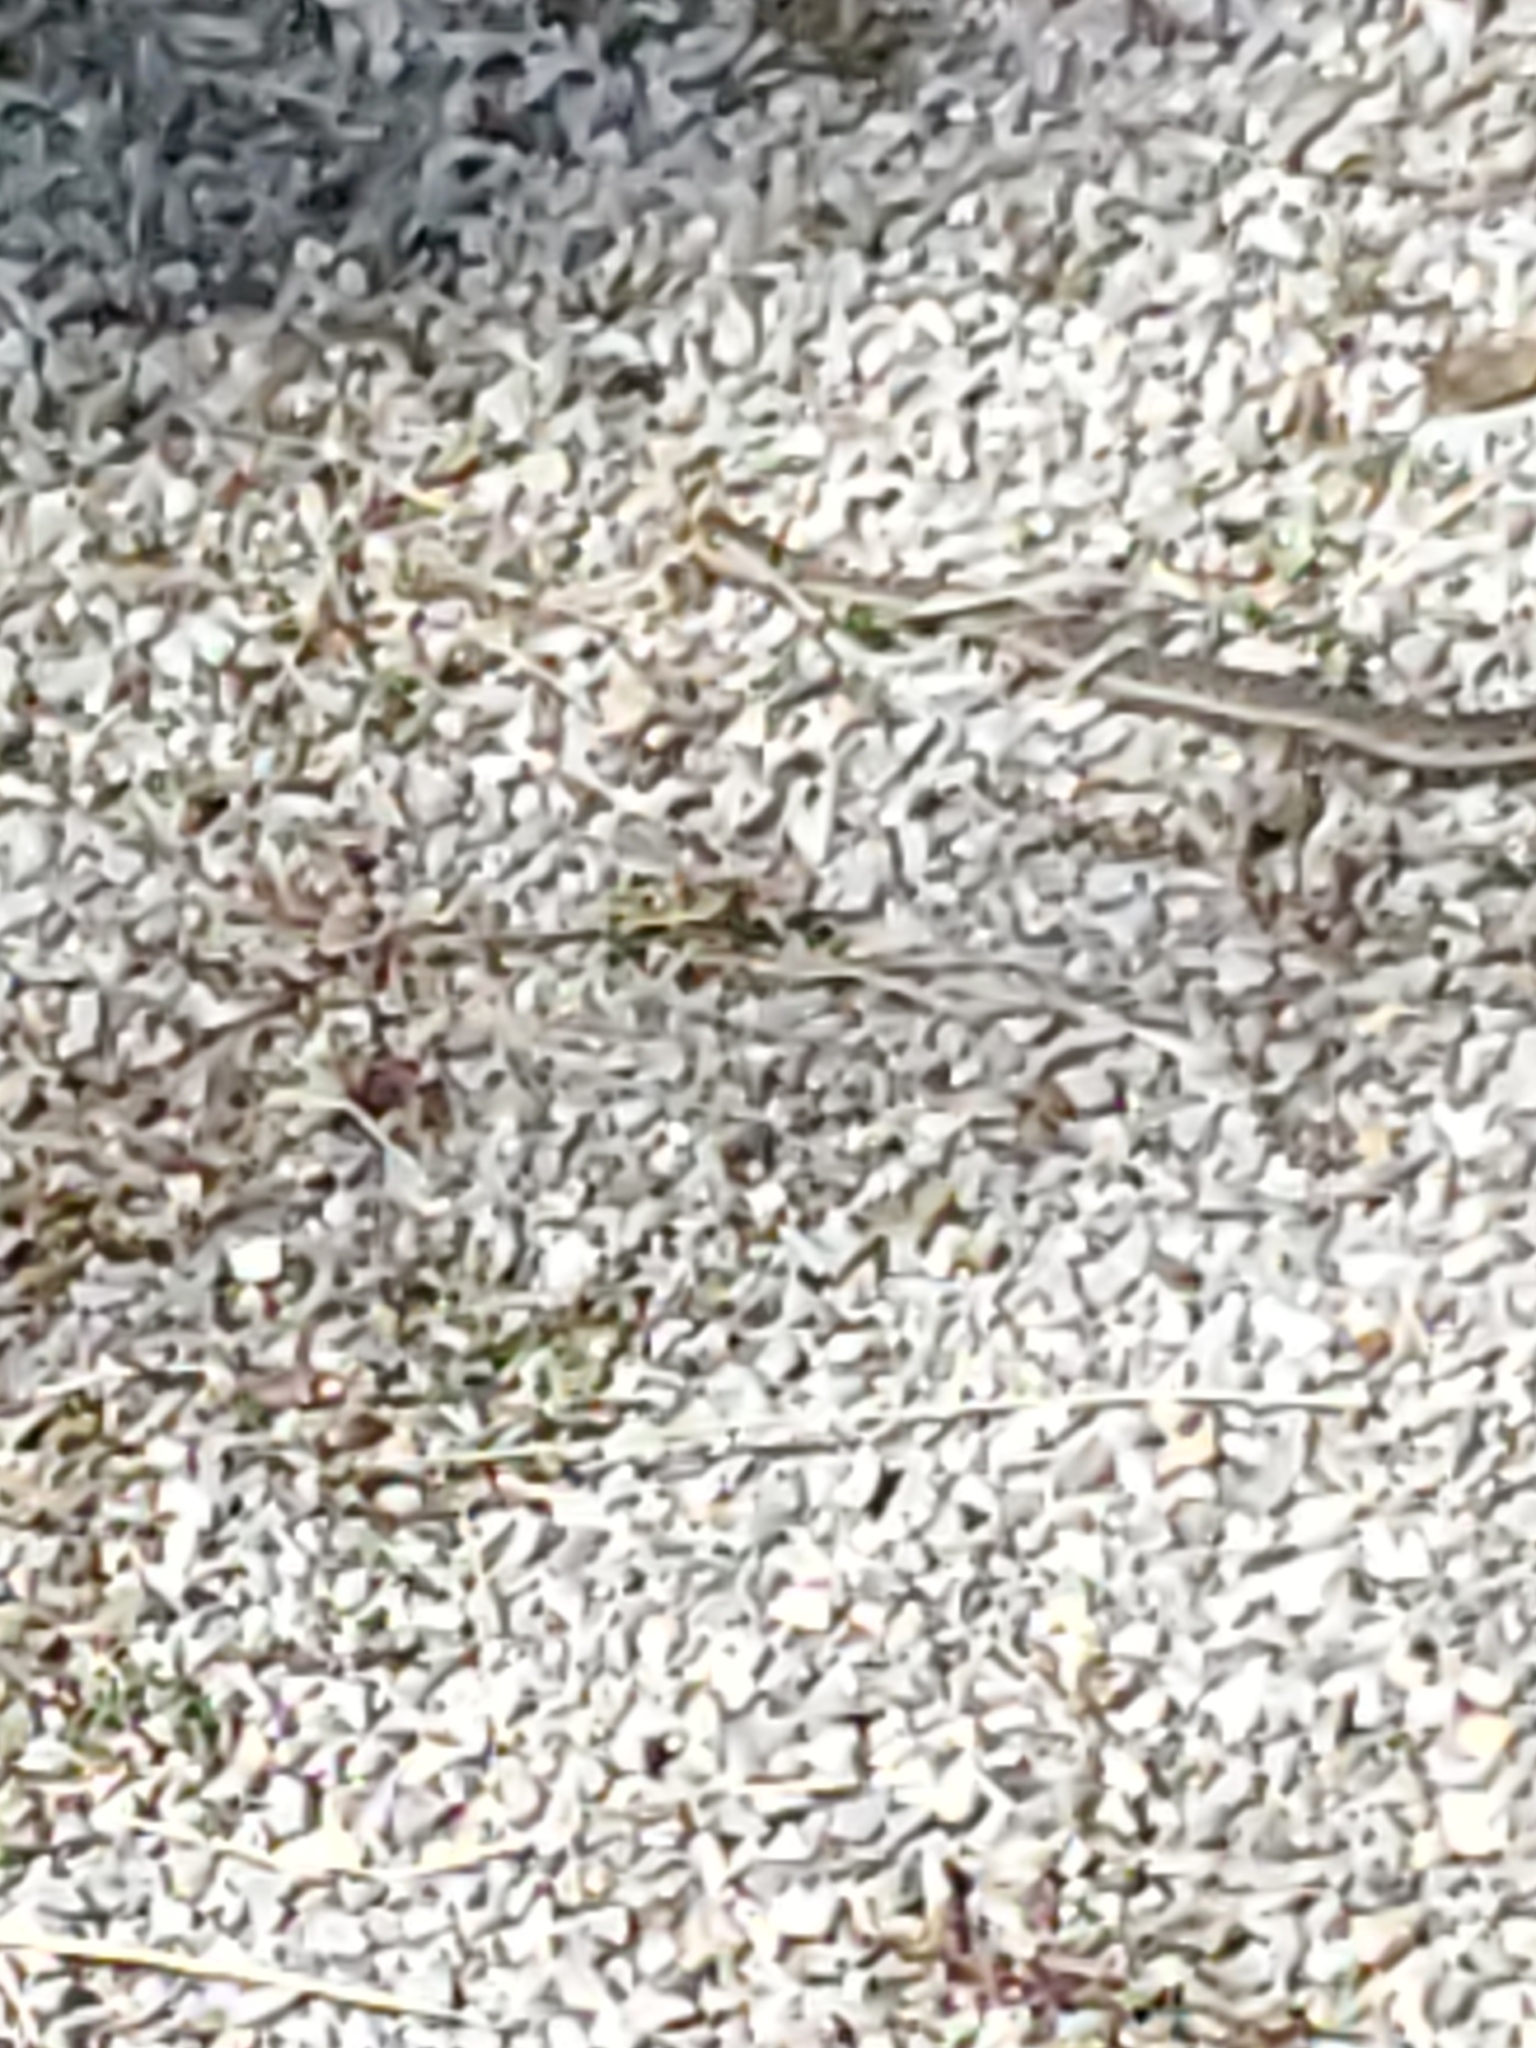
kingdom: Animalia
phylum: Chordata
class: Squamata
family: Colubridae
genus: Thamnophis
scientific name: Thamnophis elegans
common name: Western terrestrial garter snake
